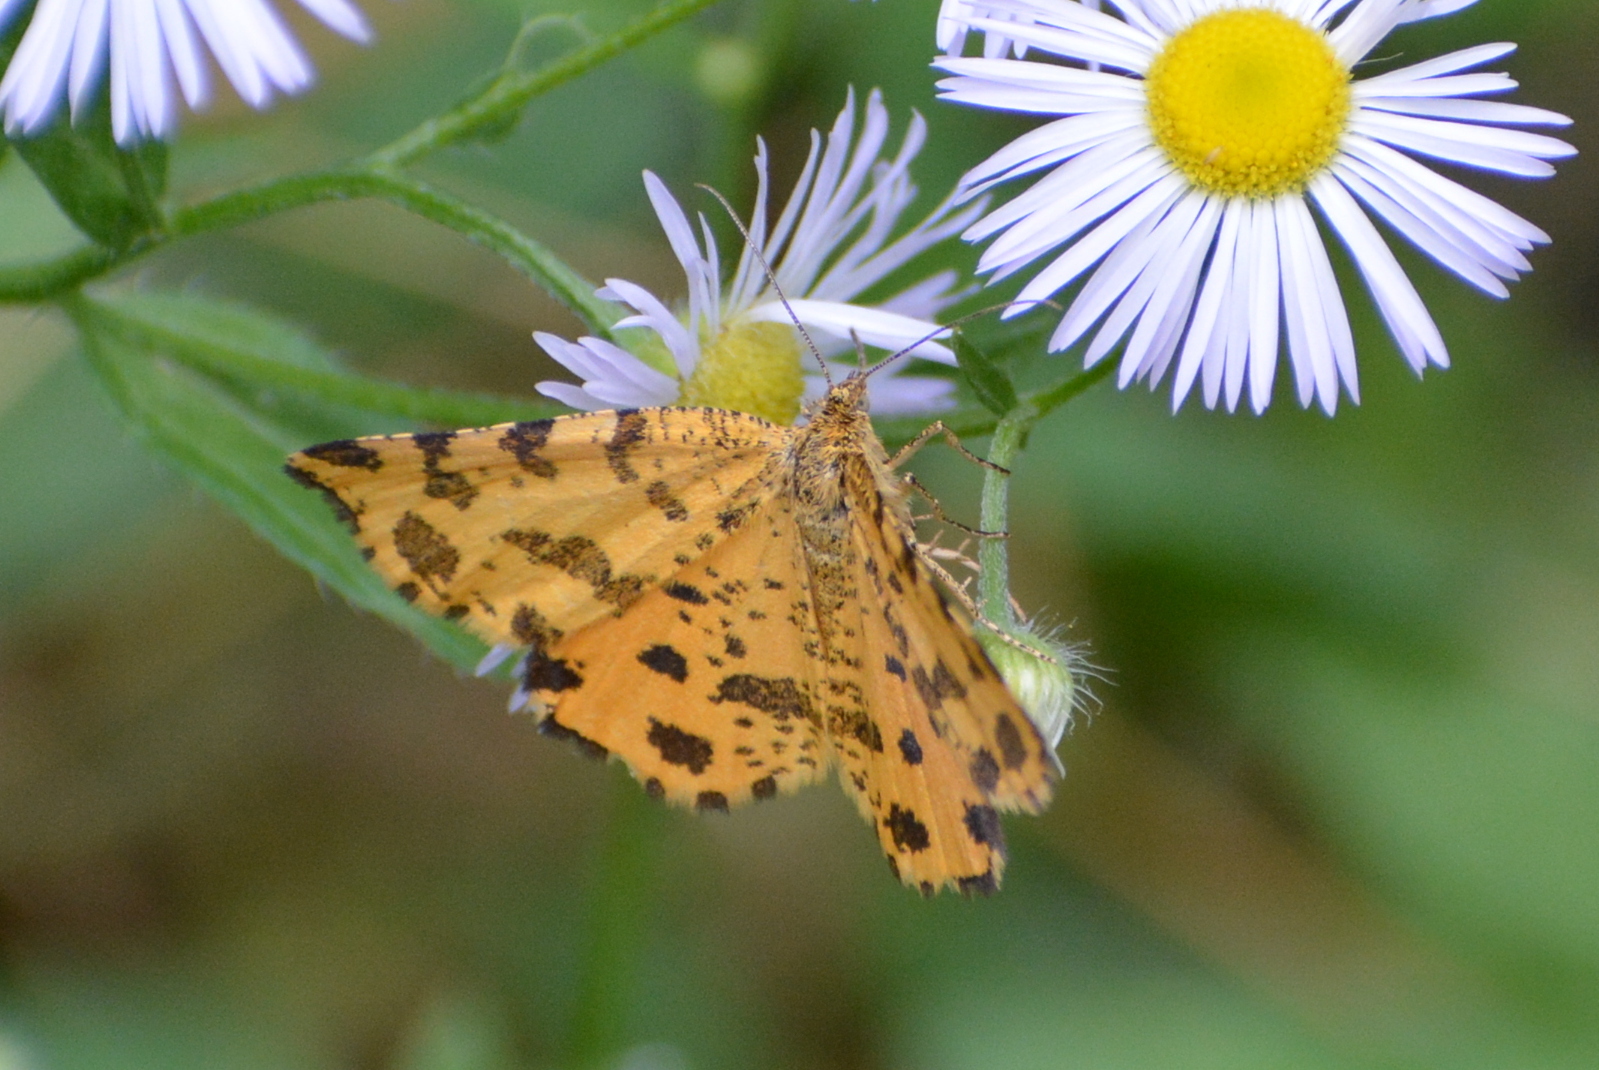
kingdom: Animalia
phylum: Arthropoda
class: Insecta
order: Lepidoptera
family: Geometridae
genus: Pseudopanthera
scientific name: Pseudopanthera macularia
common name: Speckled yellow
